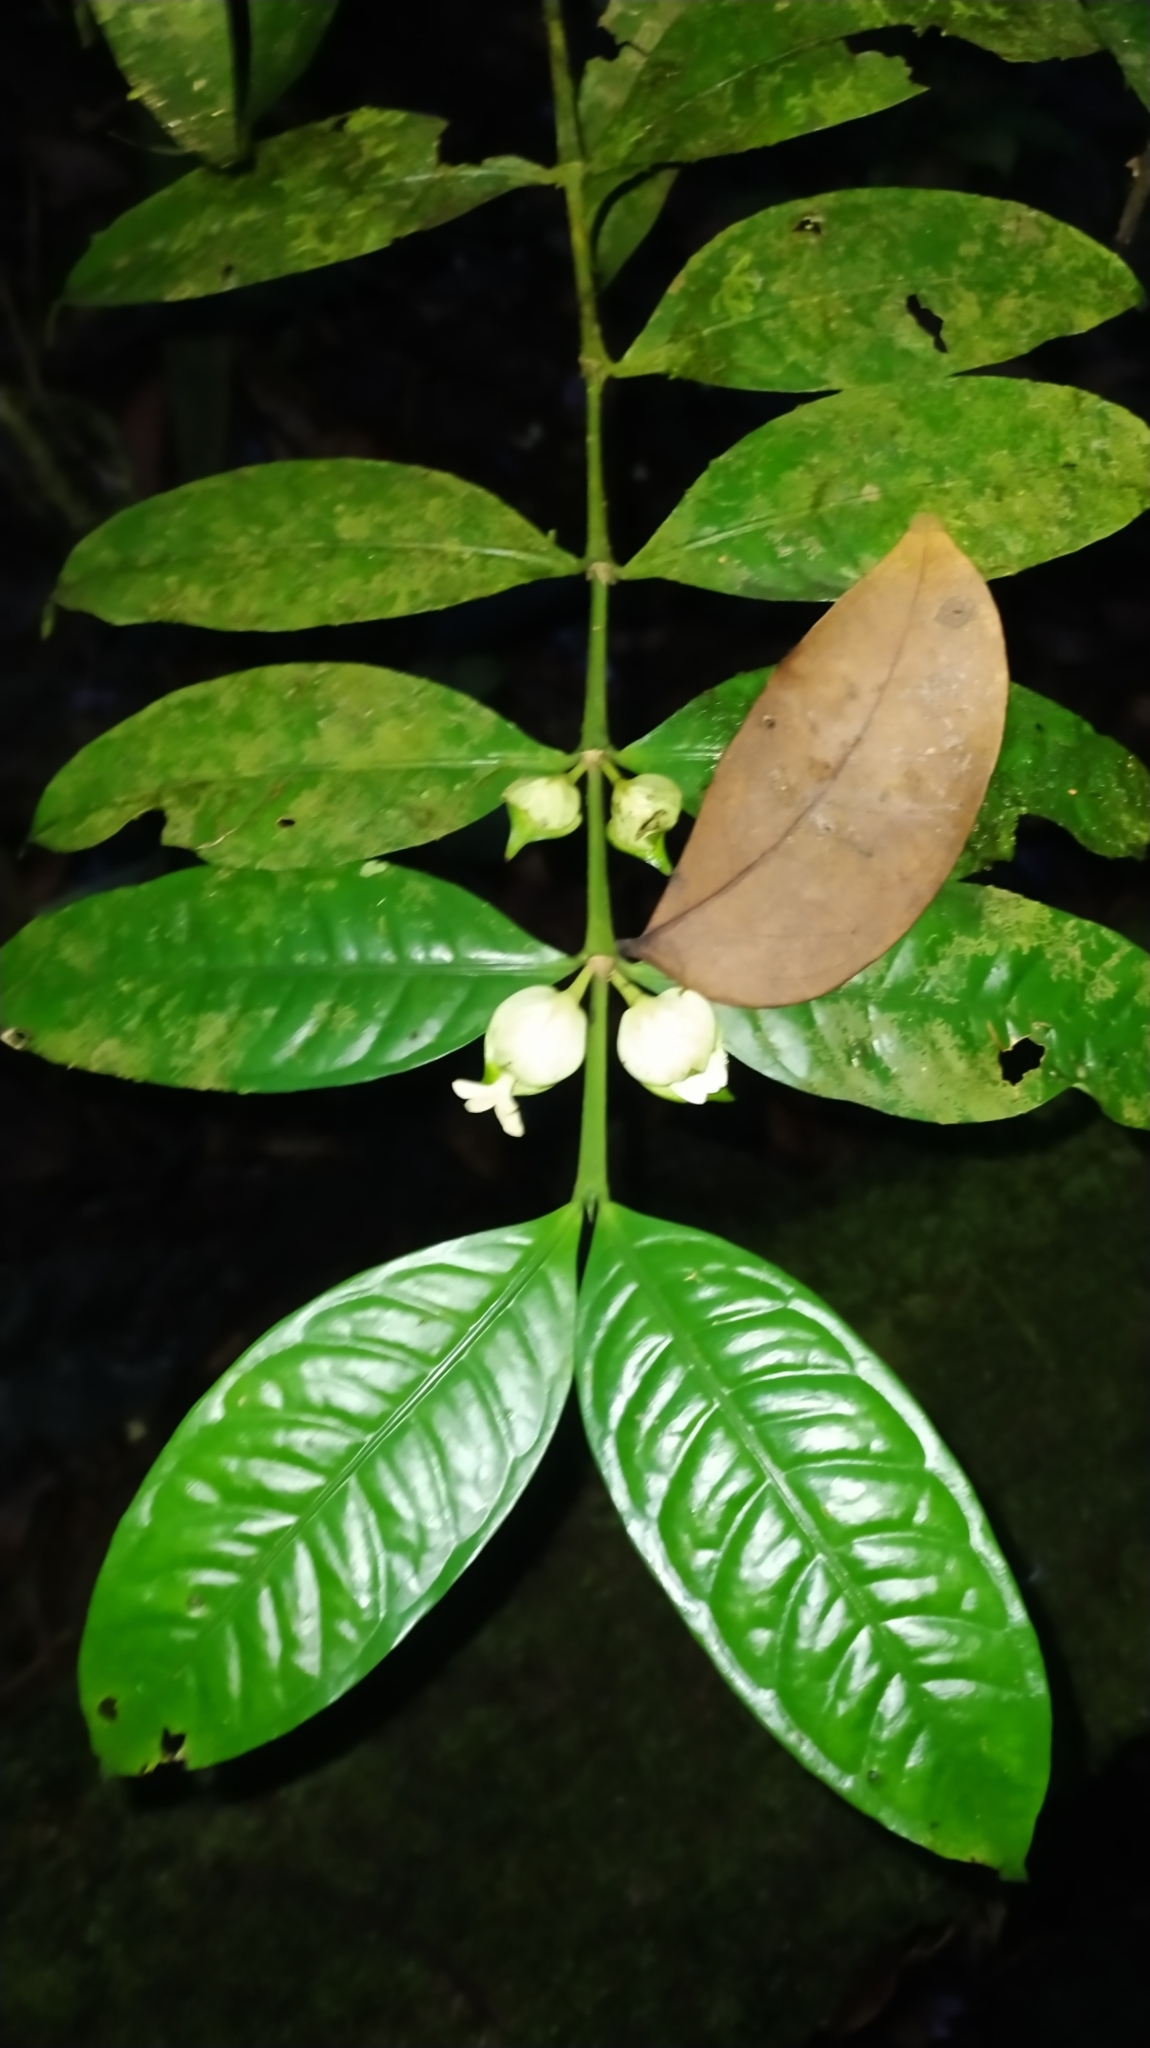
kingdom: Plantae
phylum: Tracheophyta
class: Magnoliopsida
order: Gentianales
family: Rubiaceae
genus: Faramea
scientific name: Faramea guianensis
